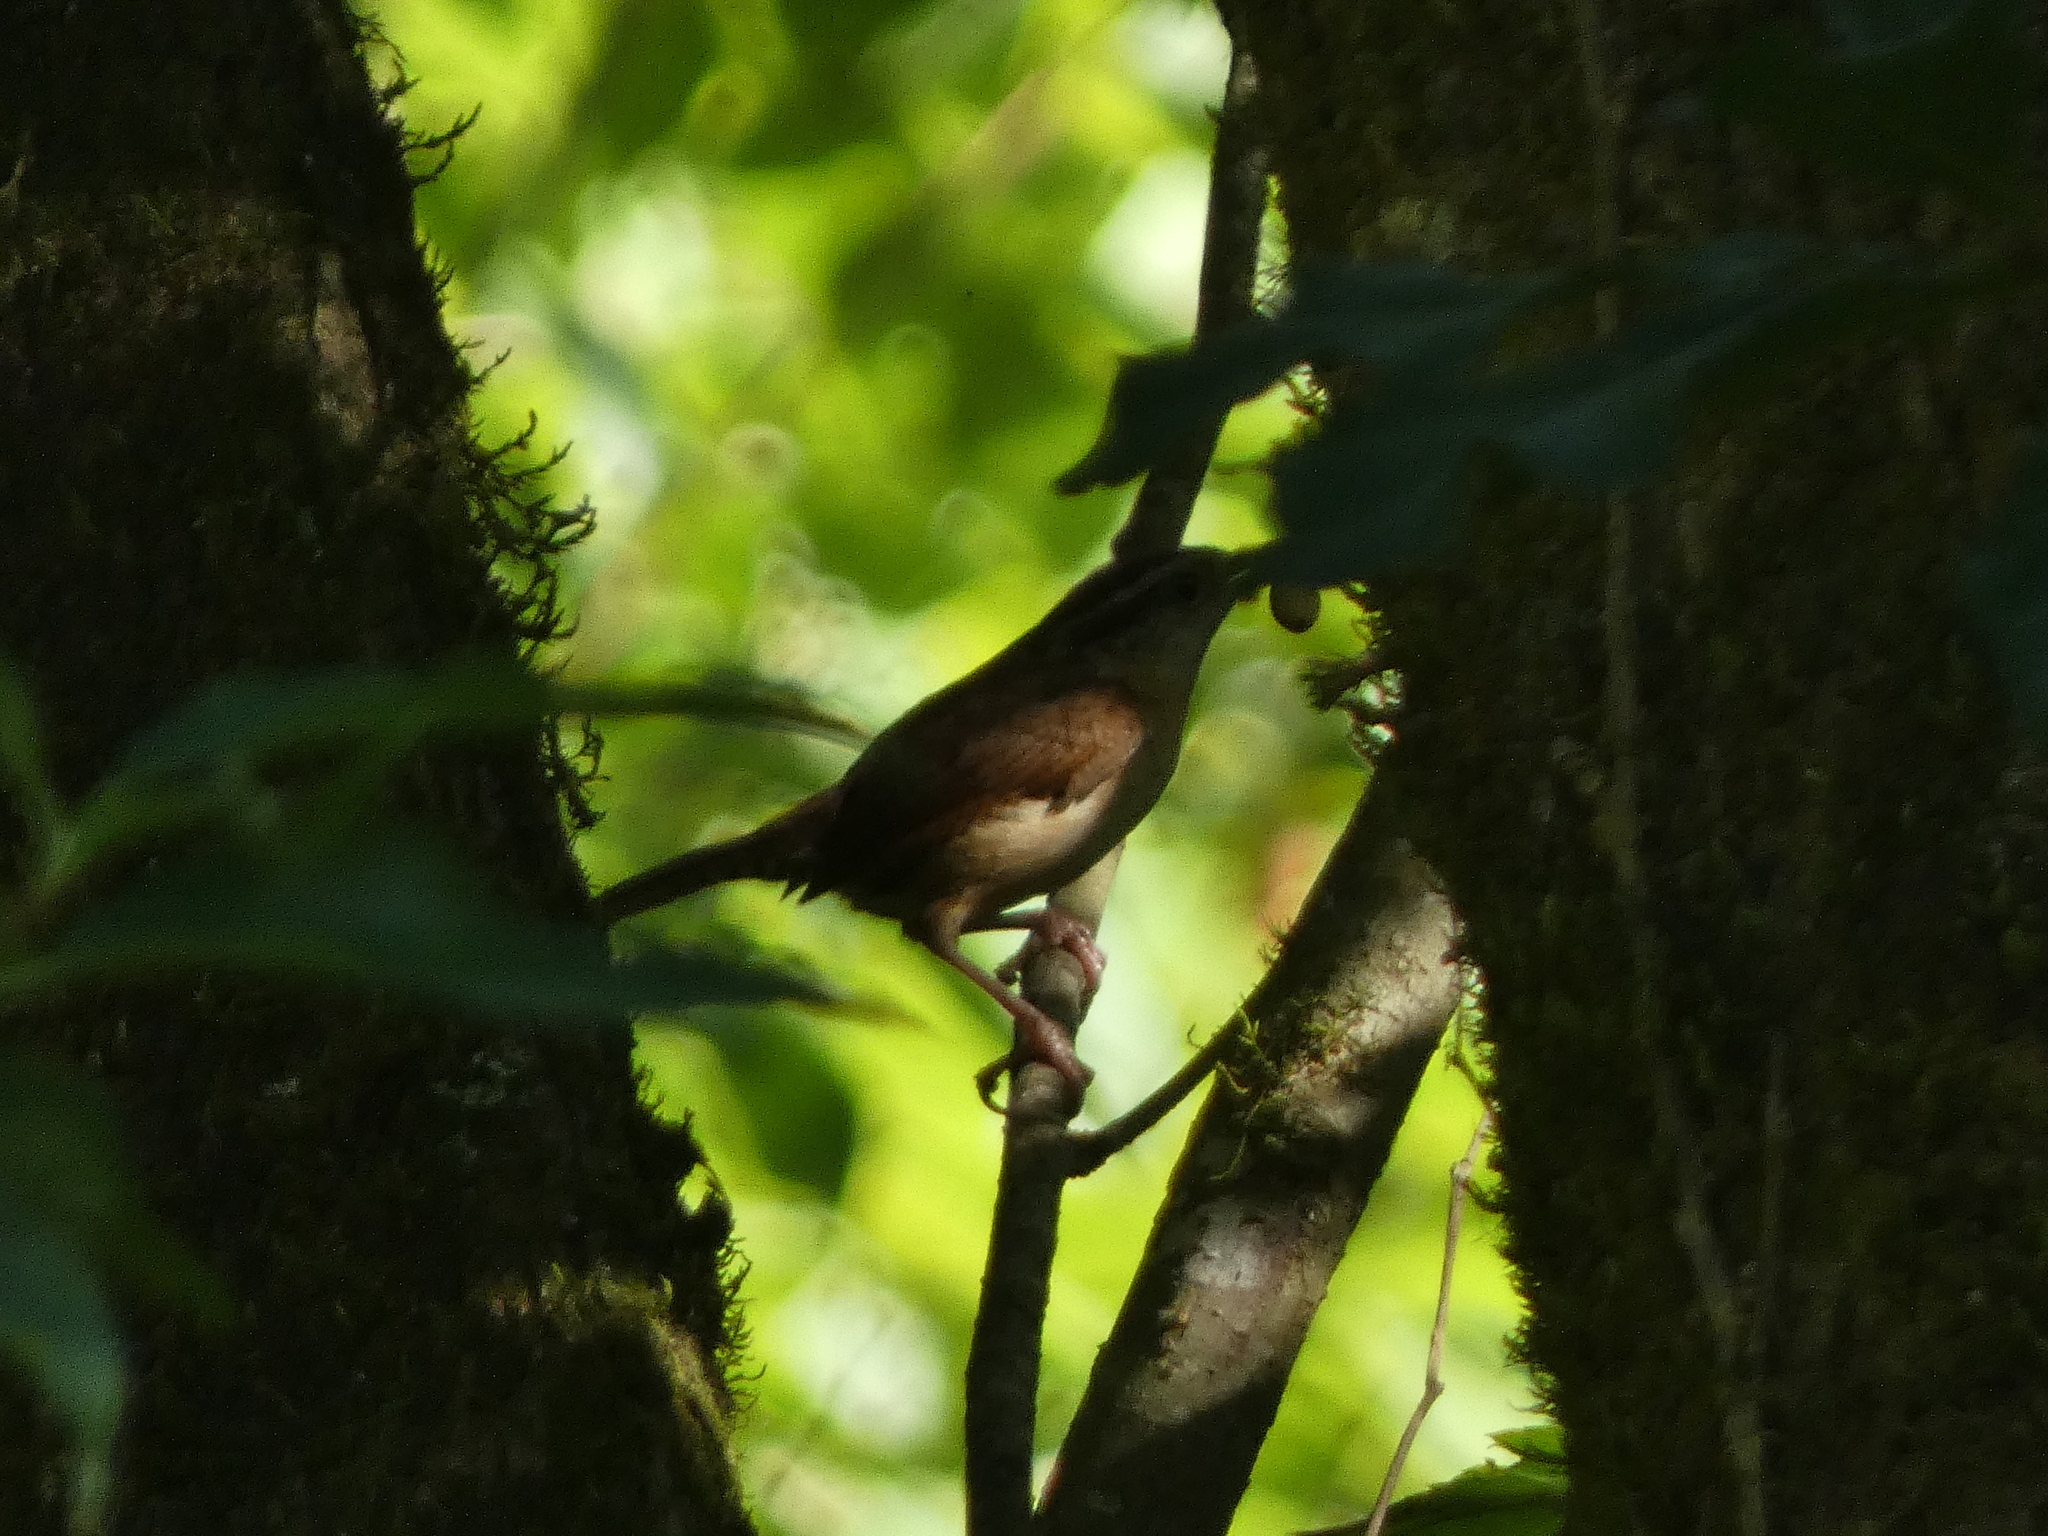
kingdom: Animalia
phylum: Chordata
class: Aves
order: Passeriformes
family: Troglodytidae
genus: Thryothorus
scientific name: Thryothorus ludovicianus
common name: Carolina wren
